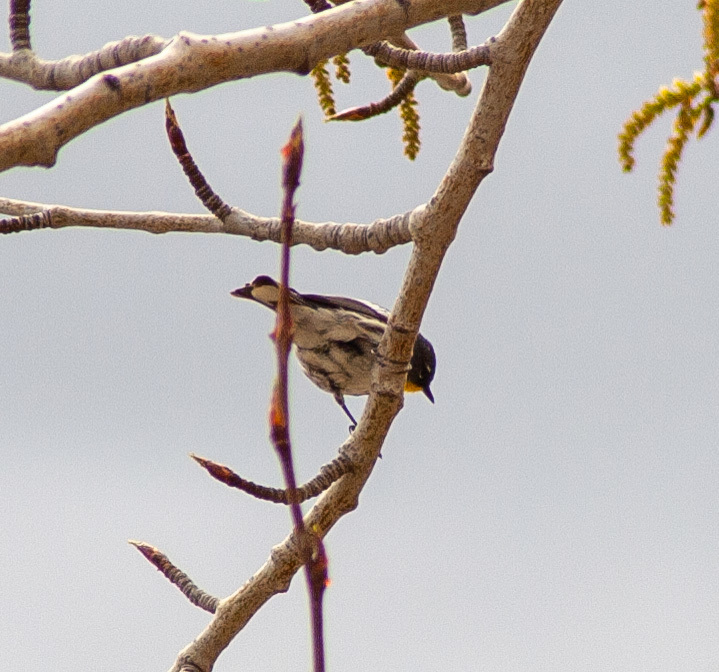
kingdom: Animalia
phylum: Chordata
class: Aves
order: Passeriformes
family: Parulidae
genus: Setophaga
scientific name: Setophaga coronata
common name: Myrtle warbler
